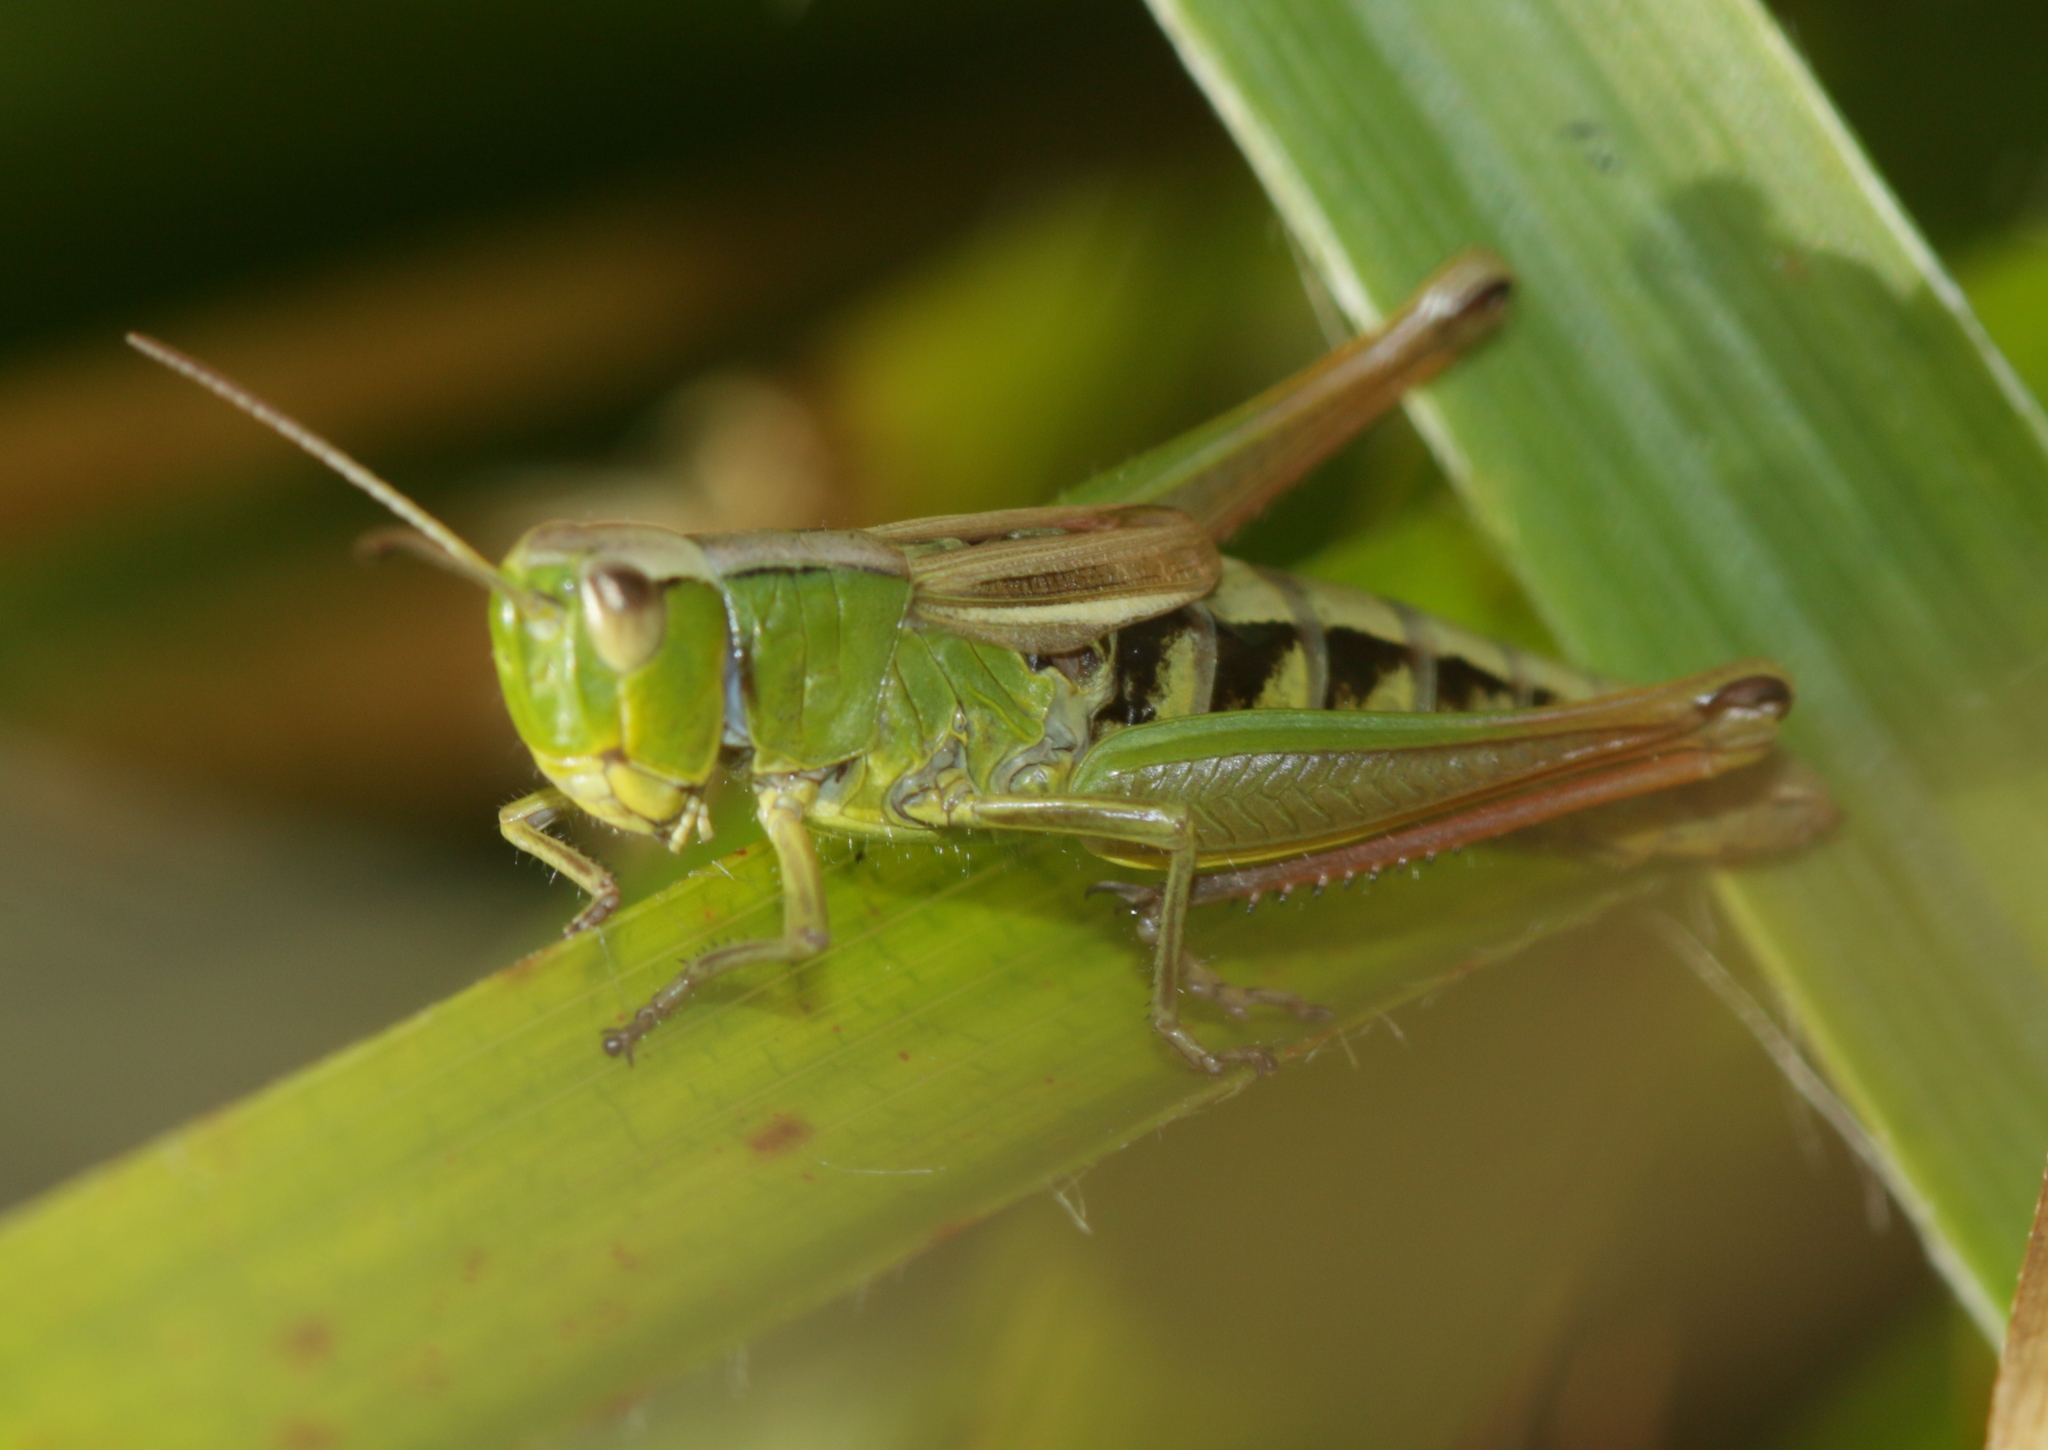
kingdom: Animalia
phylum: Arthropoda
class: Insecta
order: Orthoptera
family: Acrididae
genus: Pseudochorthippus
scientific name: Pseudochorthippus parallelus
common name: Meadow grasshopper
